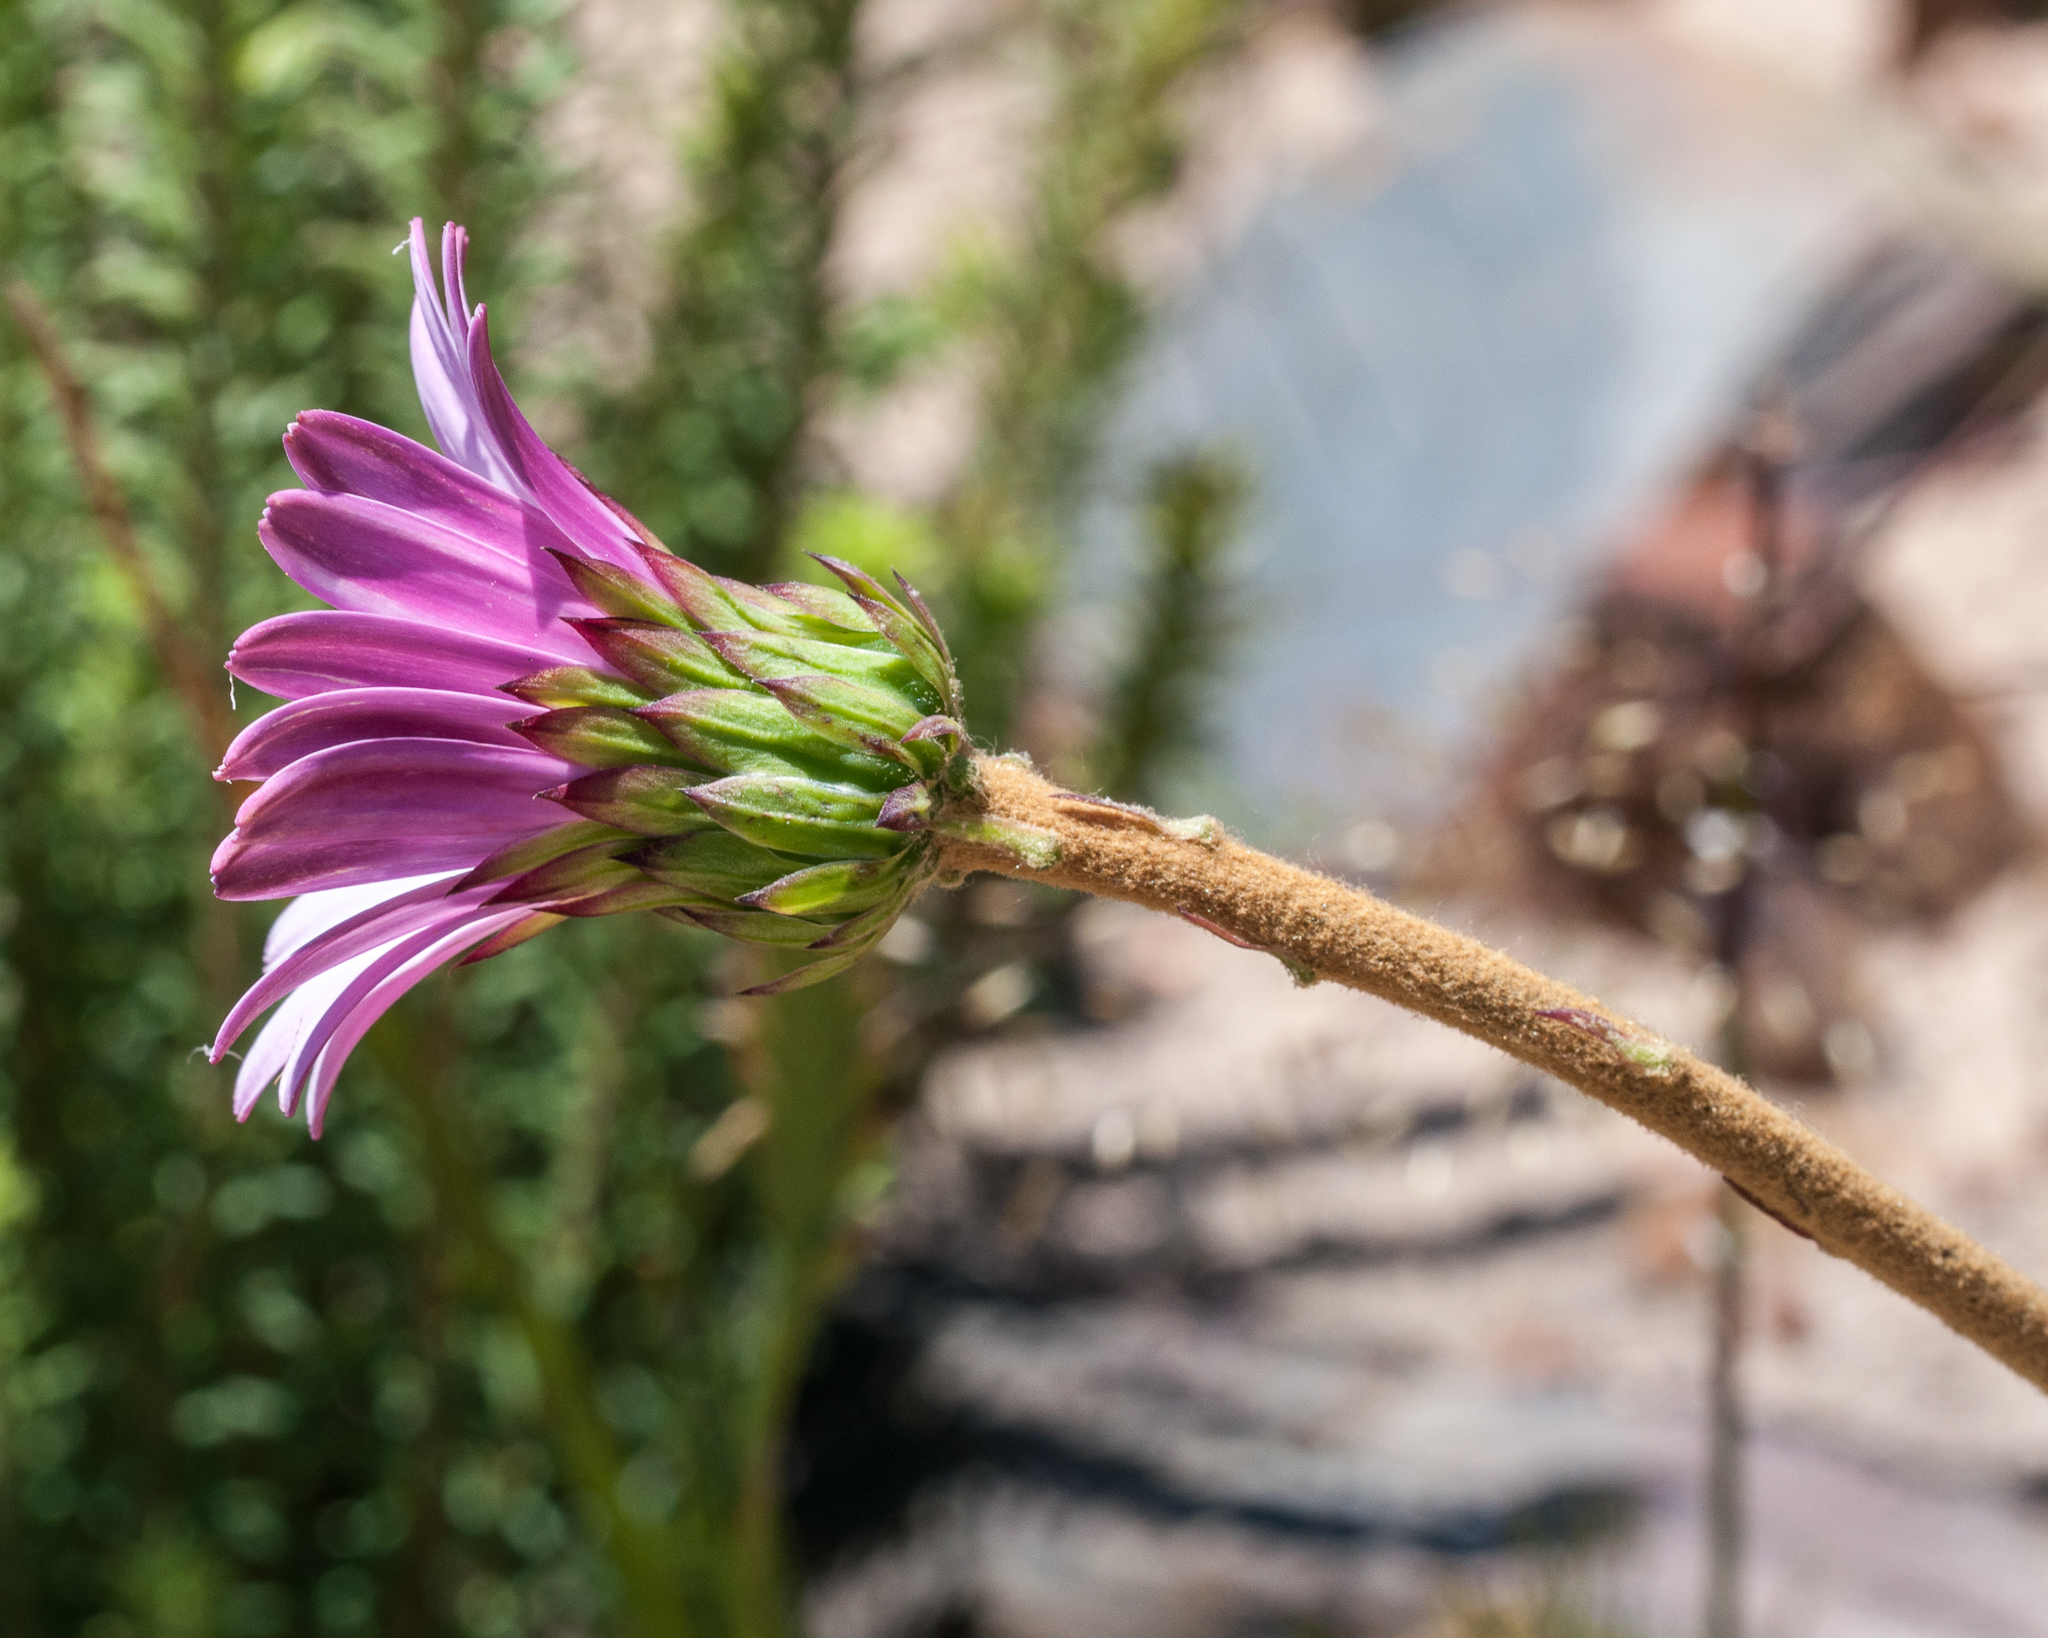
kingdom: Plantae
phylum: Tracheophyta
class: Magnoliopsida
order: Asterales
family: Asteraceae
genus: Gerbera
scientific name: Gerbera linnaei
